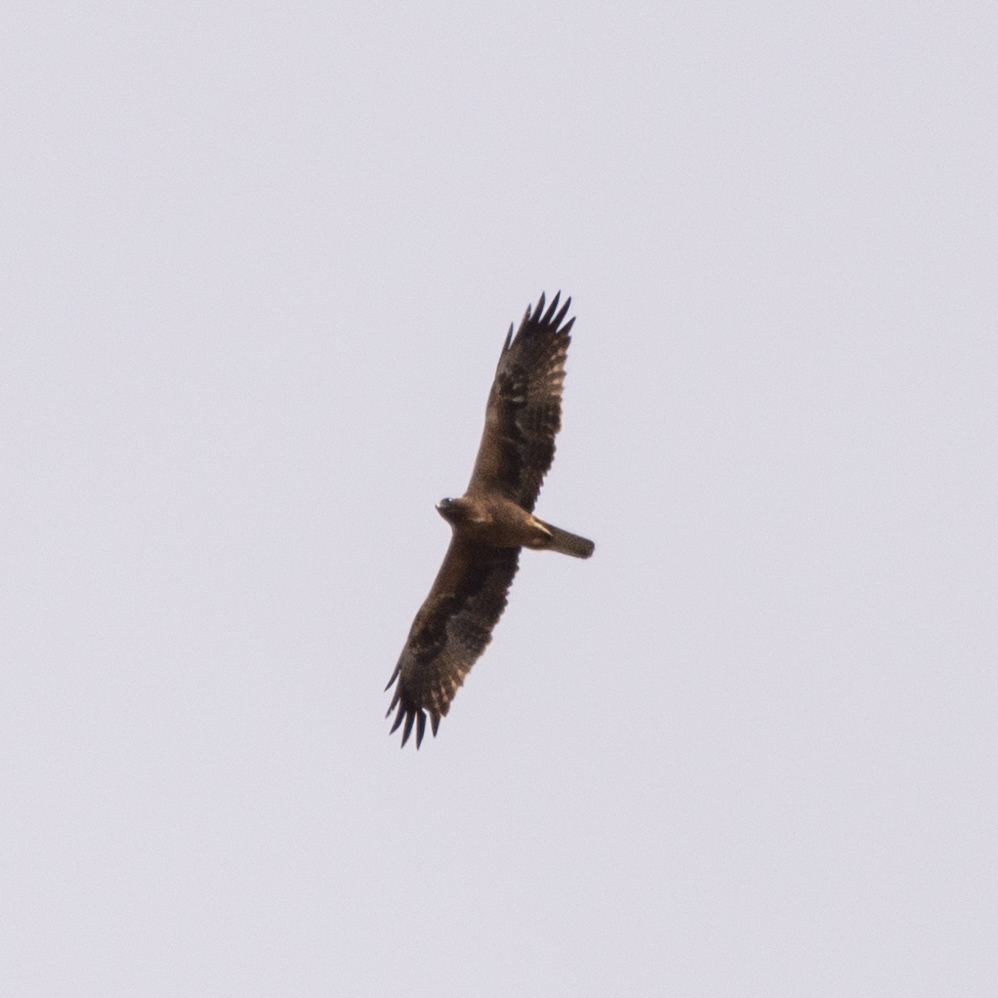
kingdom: Animalia
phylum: Chordata
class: Aves
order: Accipitriformes
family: Accipitridae
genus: Hieraaetus
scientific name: Hieraaetus pennatus
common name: Booted eagle
